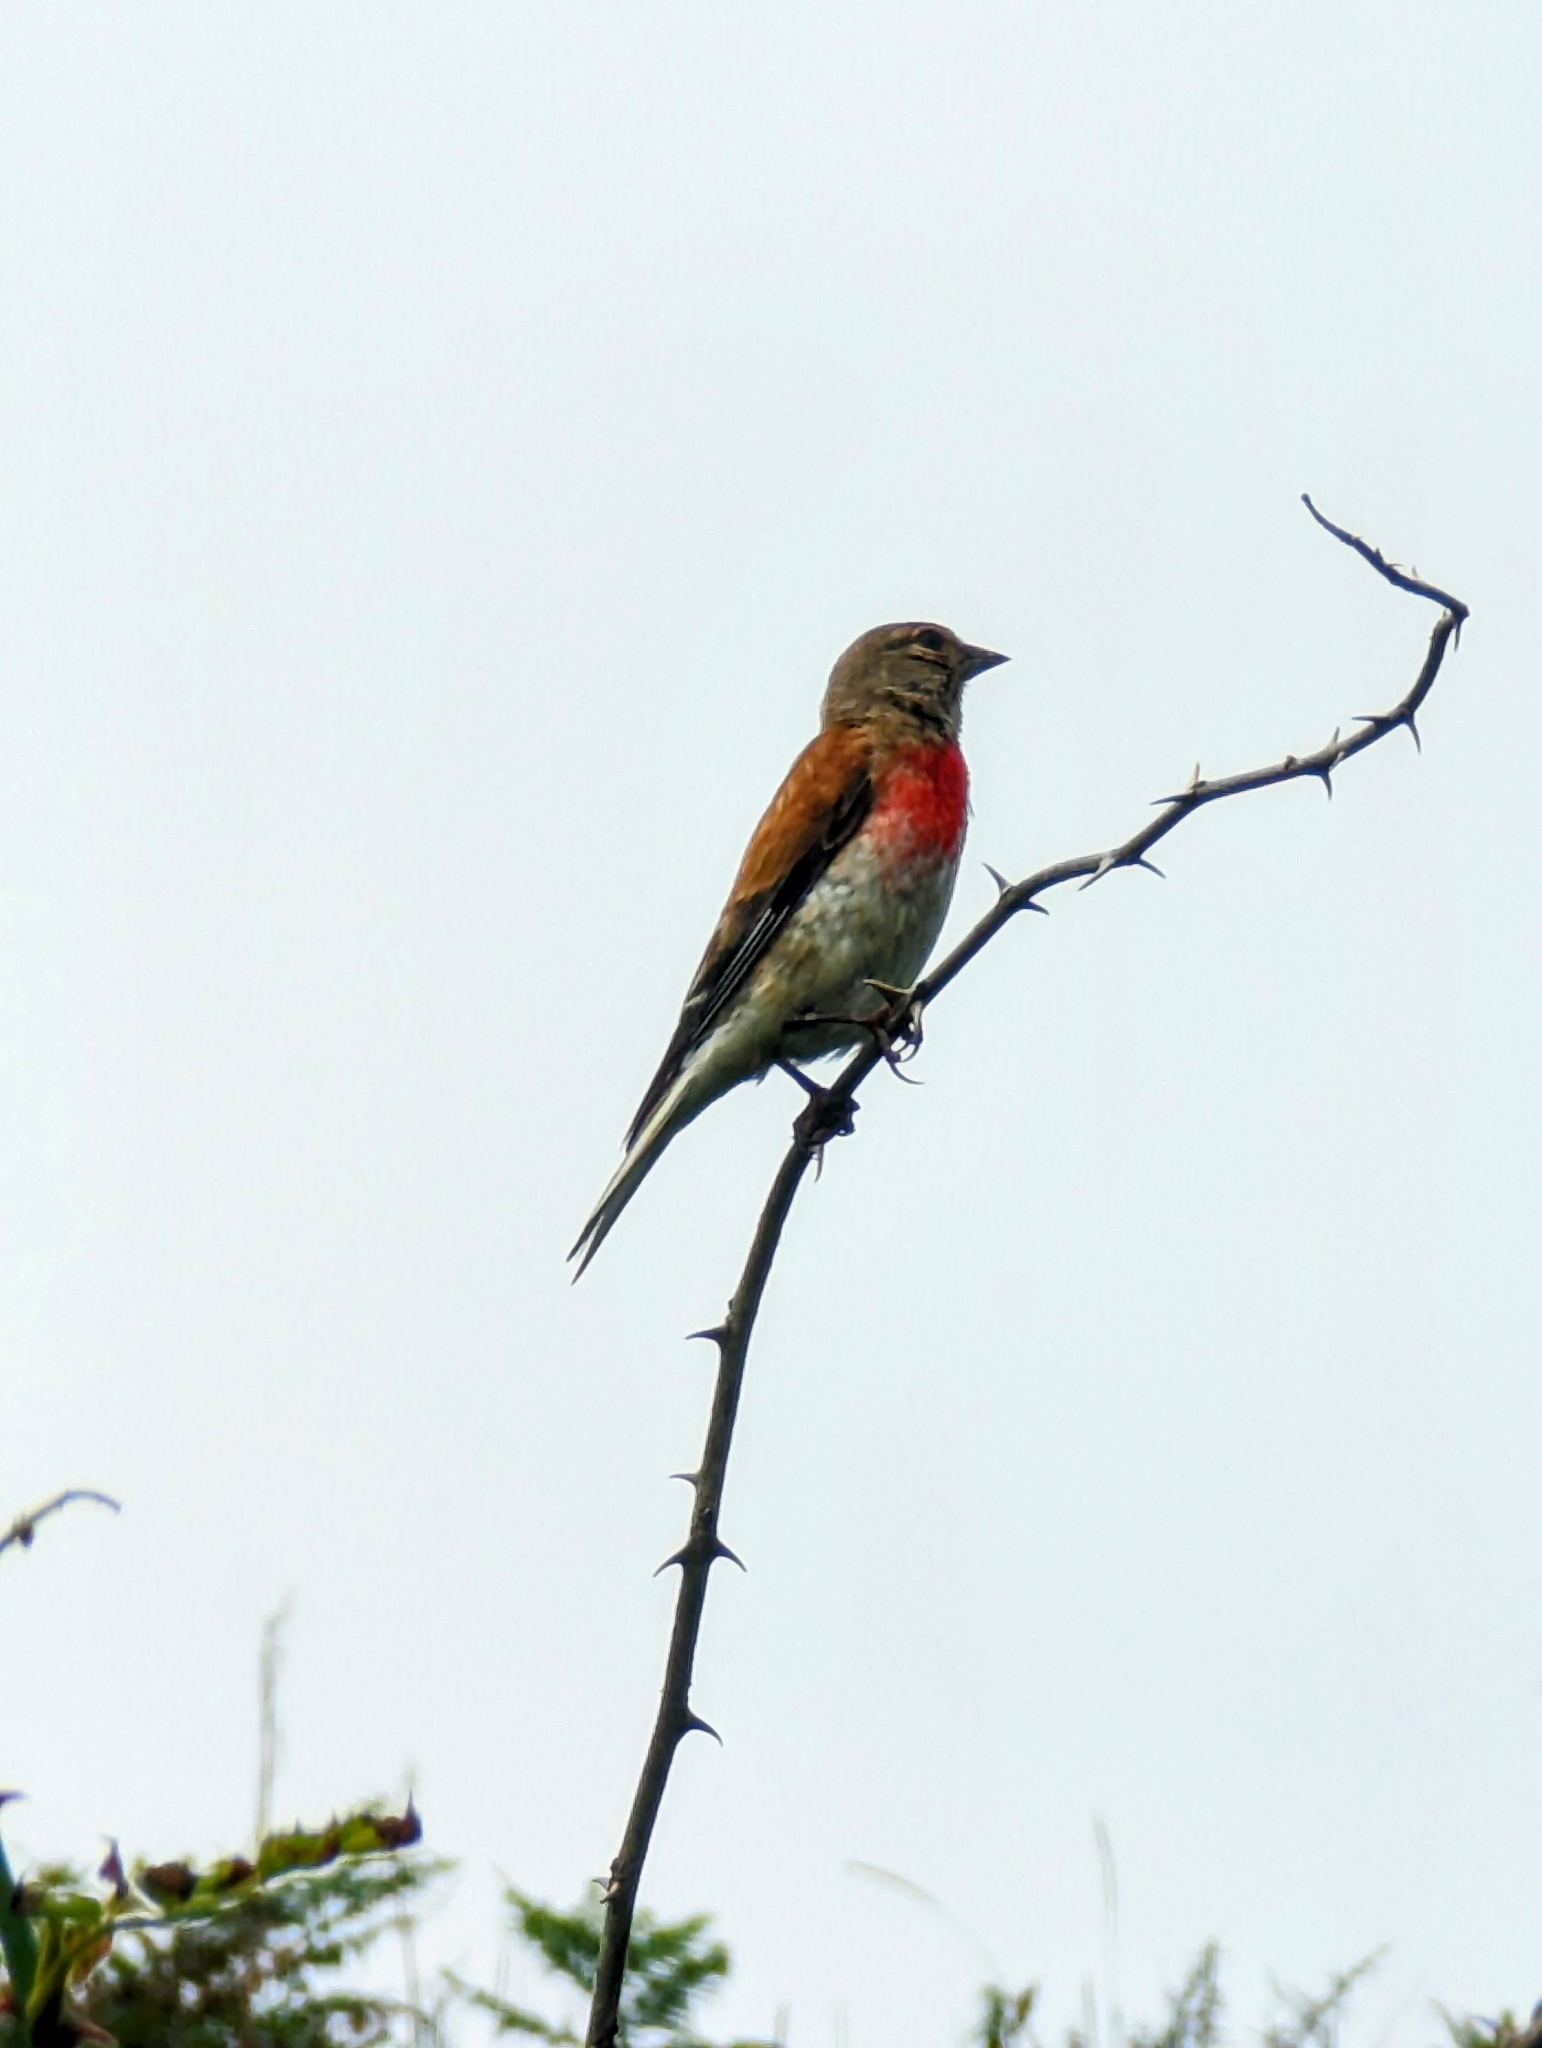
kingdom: Animalia
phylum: Chordata
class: Aves
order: Passeriformes
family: Fringillidae
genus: Linaria
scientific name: Linaria cannabina
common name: Common linnet
